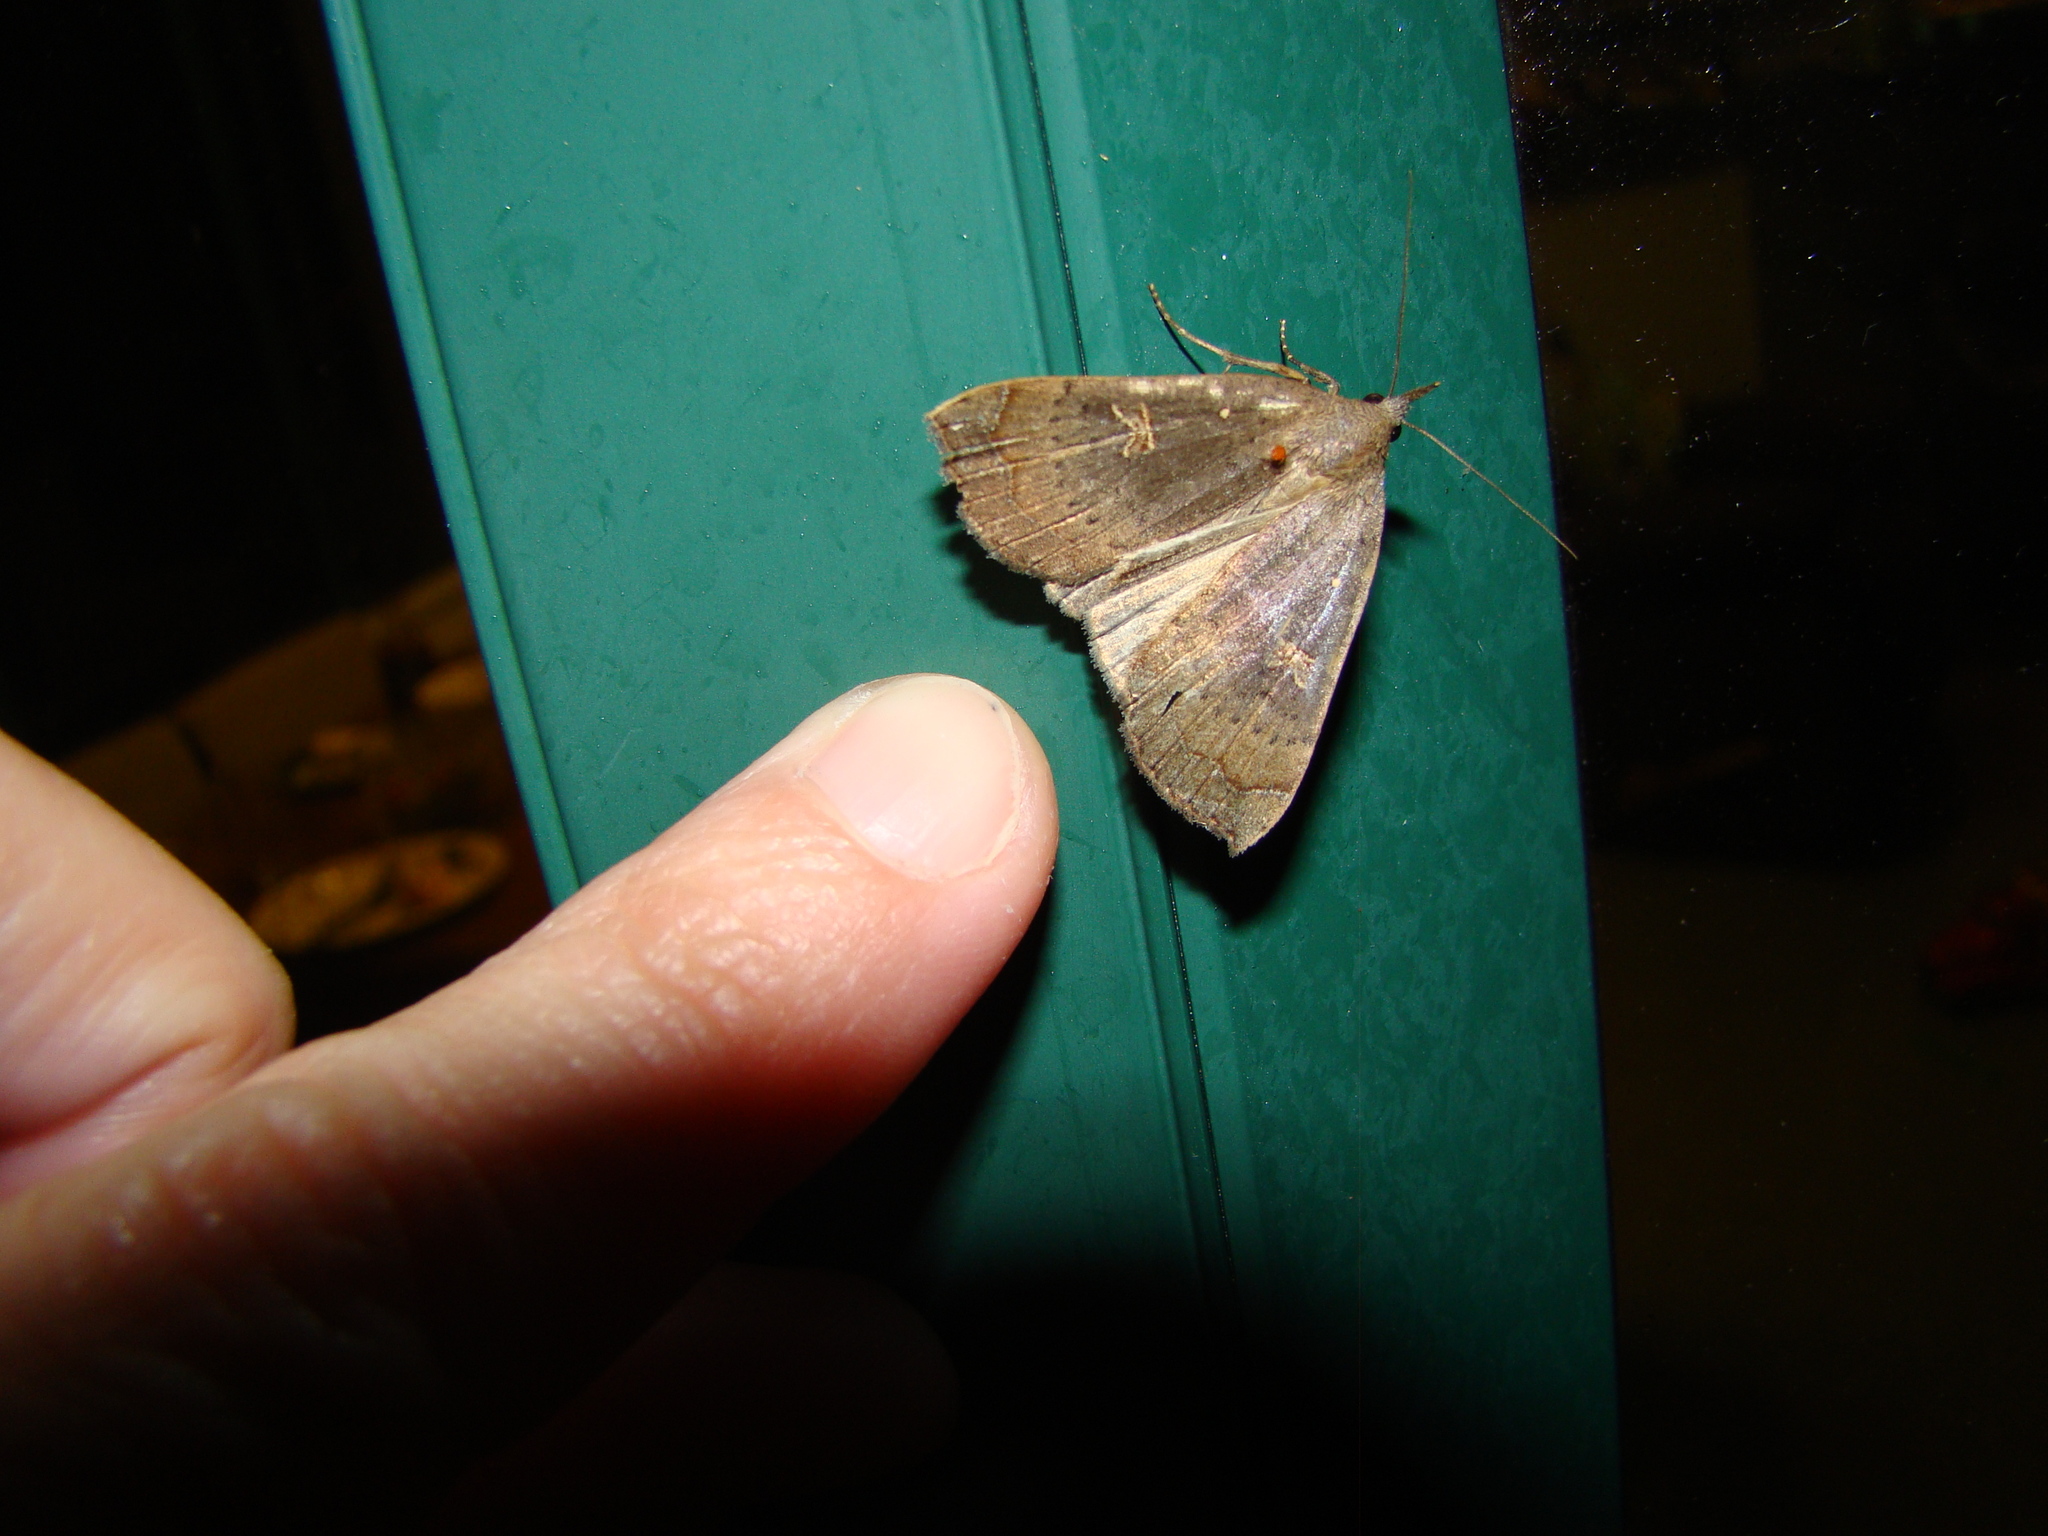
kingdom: Animalia
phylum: Arthropoda
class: Insecta
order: Lepidoptera
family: Erebidae
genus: Rhapsa
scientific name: Rhapsa scotosialis
